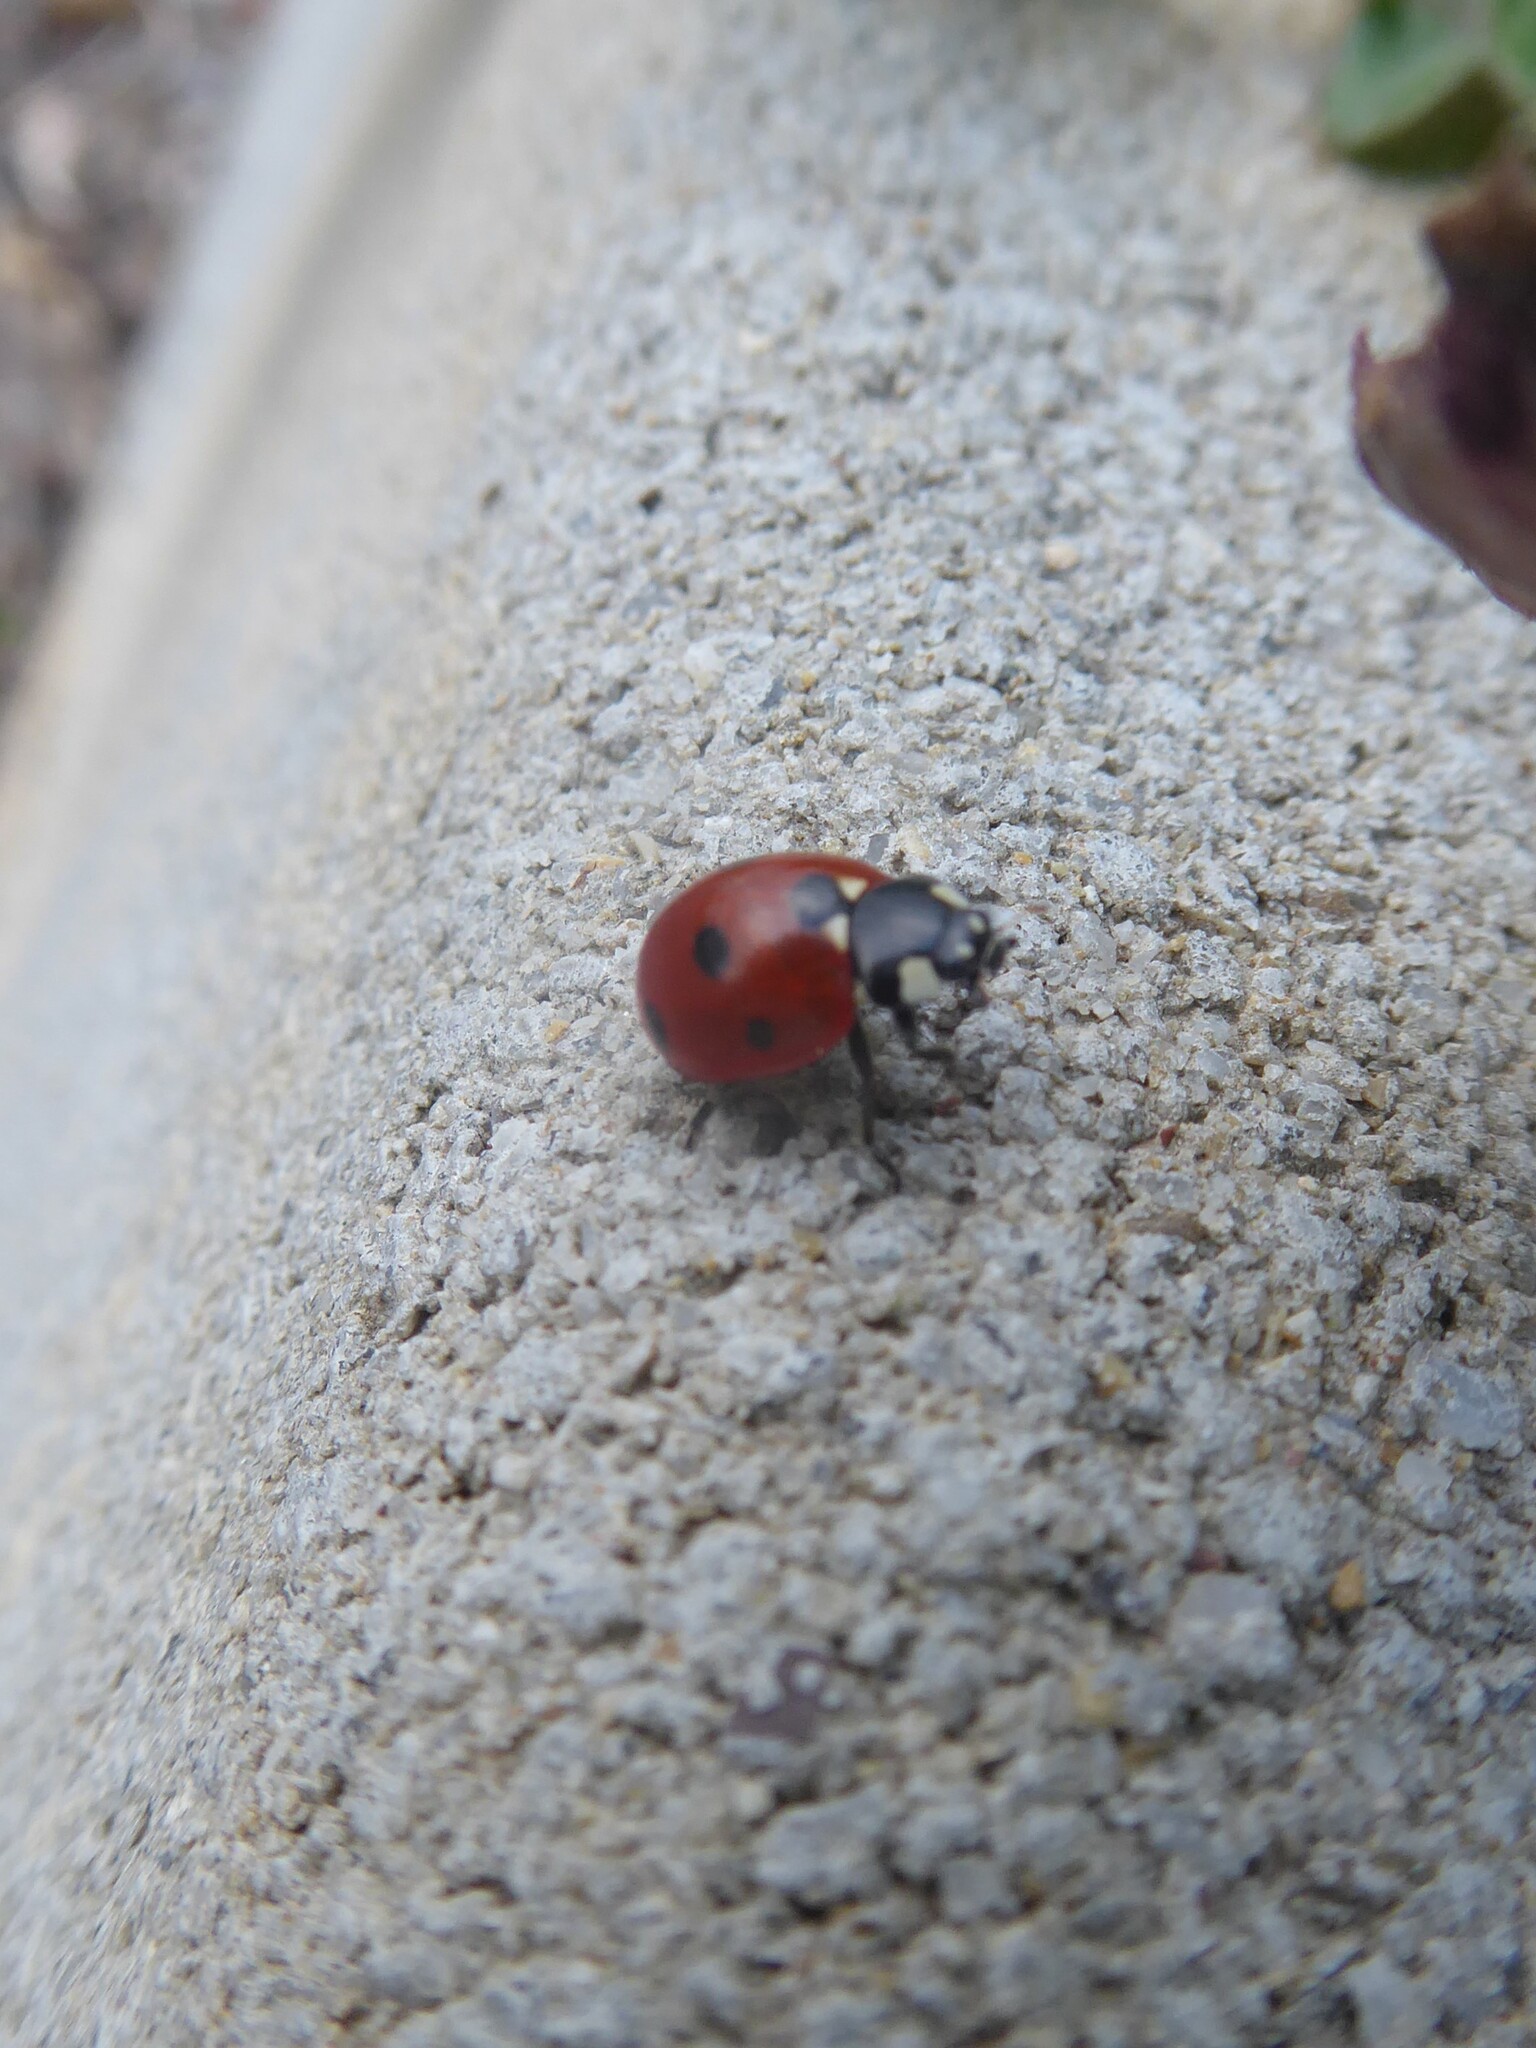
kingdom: Animalia
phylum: Arthropoda
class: Insecta
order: Coleoptera
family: Coccinellidae
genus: Coccinella
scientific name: Coccinella septempunctata
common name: Sevenspotted lady beetle
